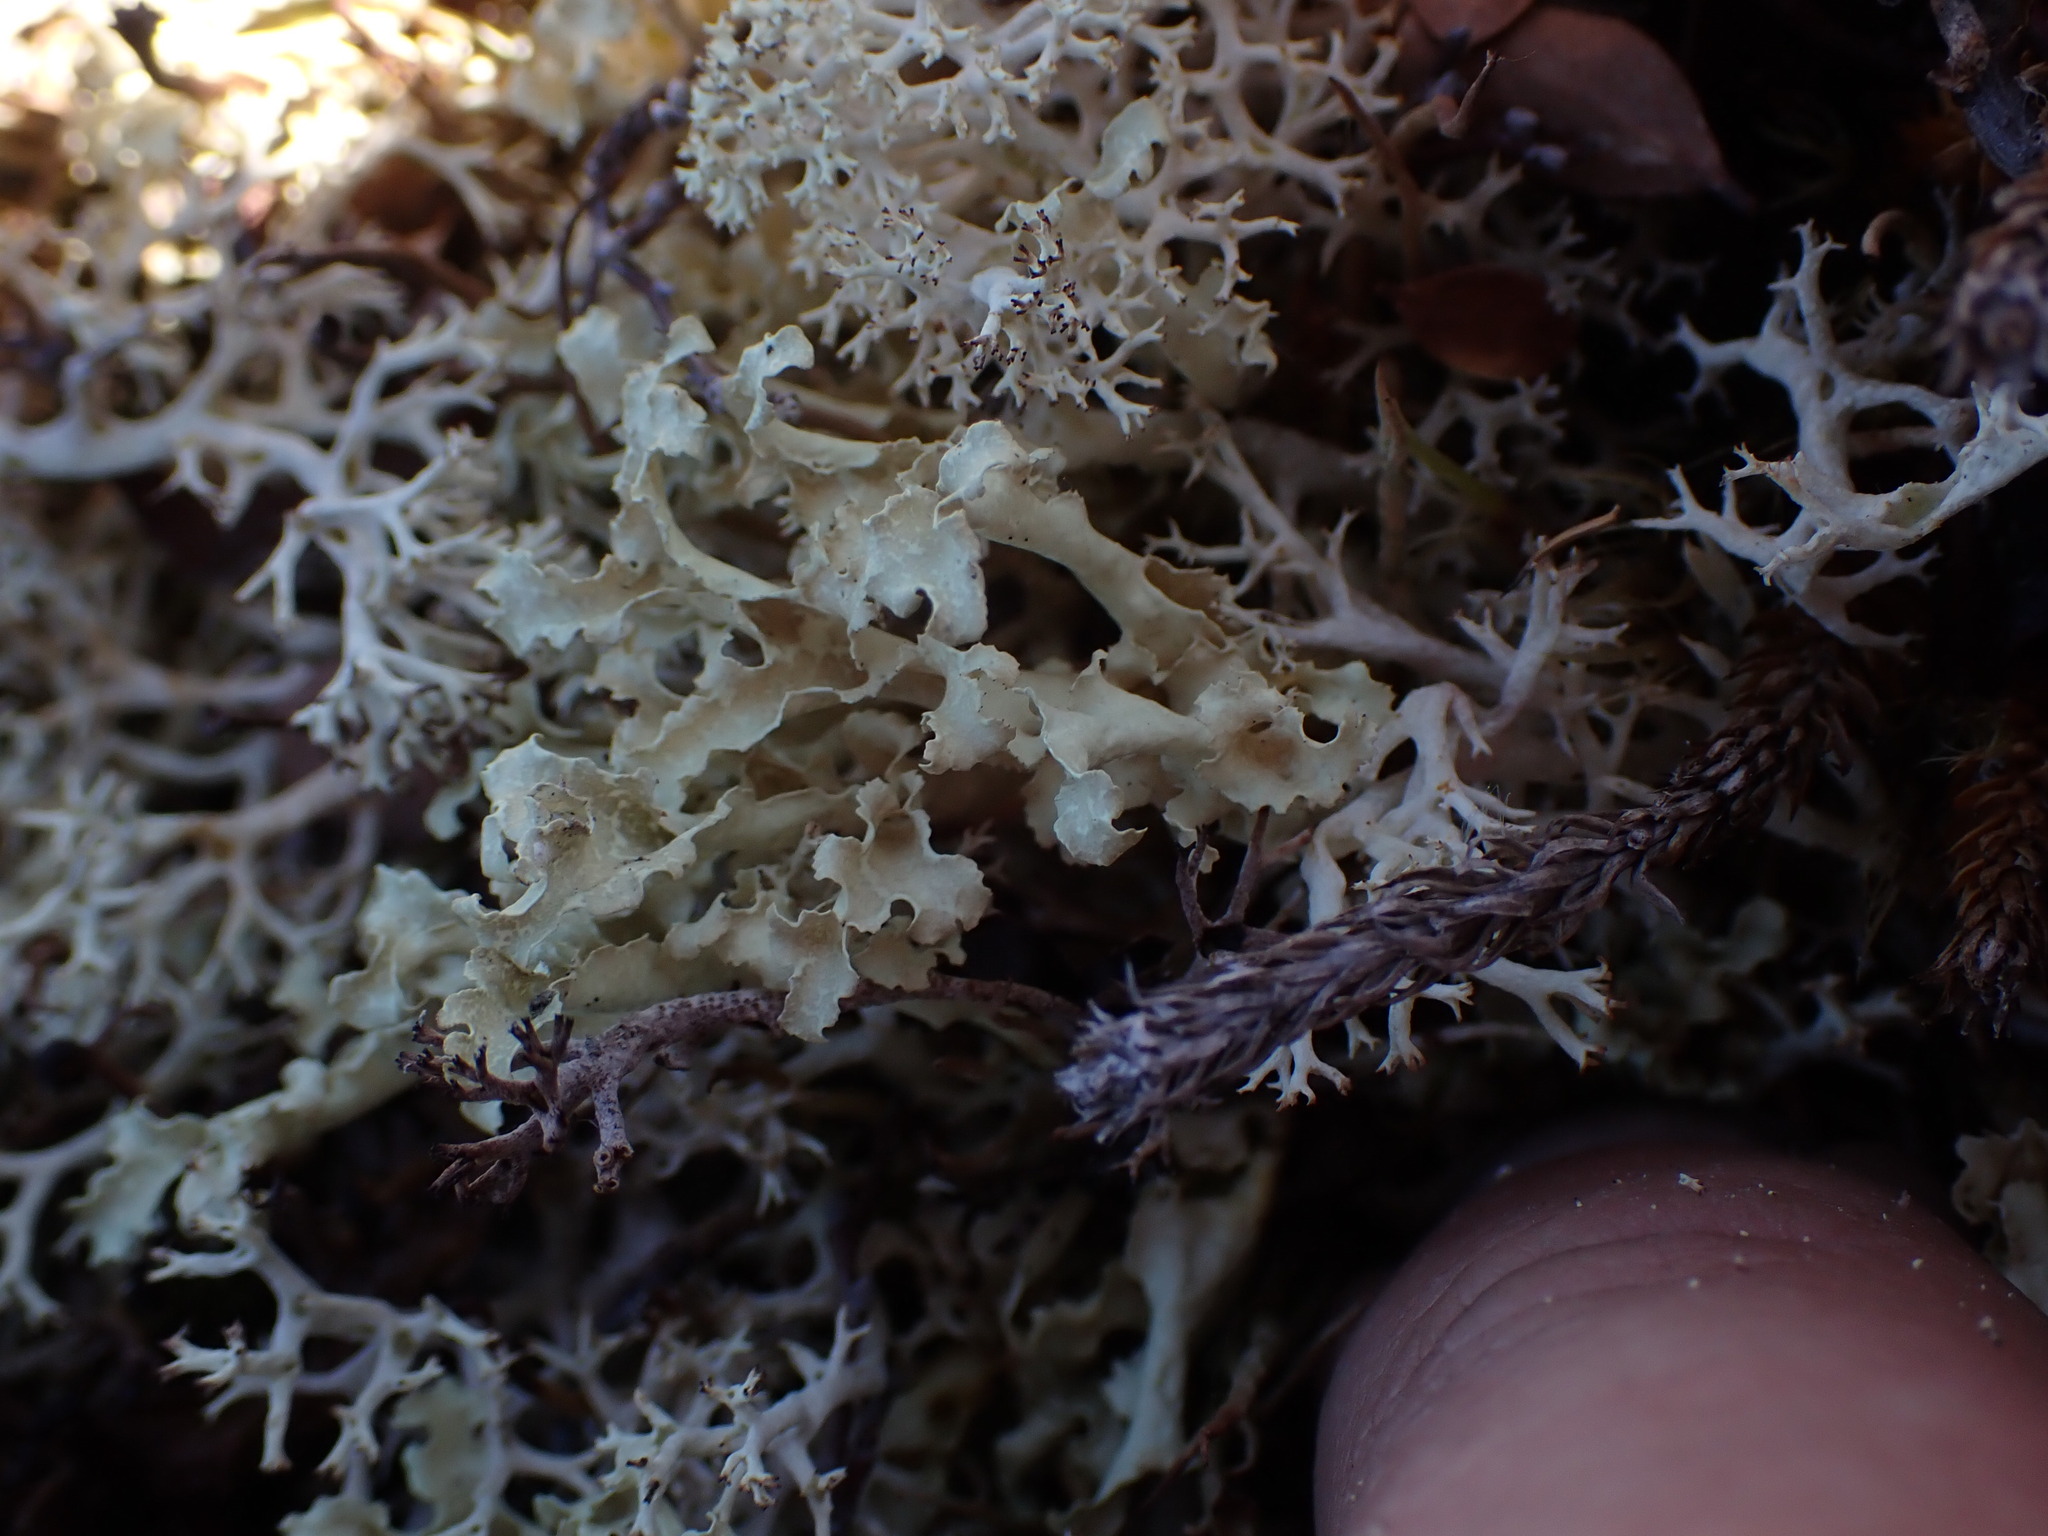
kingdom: Fungi
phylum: Ascomycota
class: Lecanoromycetes
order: Lecanorales
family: Parmeliaceae
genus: Nephromopsis
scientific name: Nephromopsis nivalis
